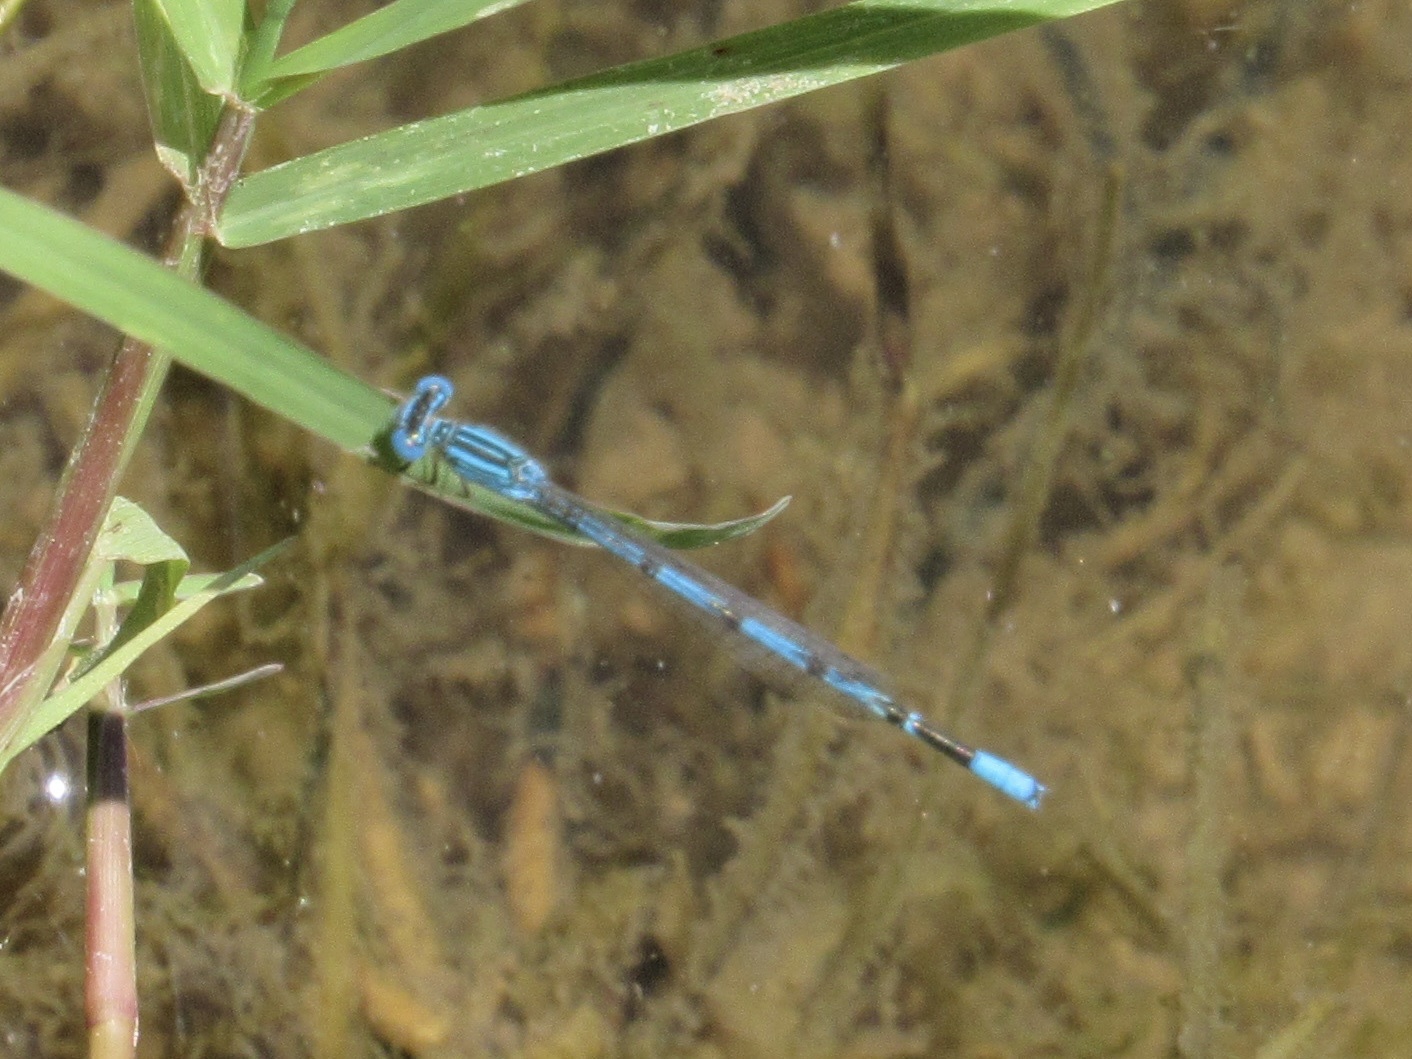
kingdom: Animalia
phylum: Arthropoda
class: Insecta
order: Odonata
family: Coenagrionidae
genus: Enallagma
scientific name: Enallagma basidens
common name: Double-striped bluet
